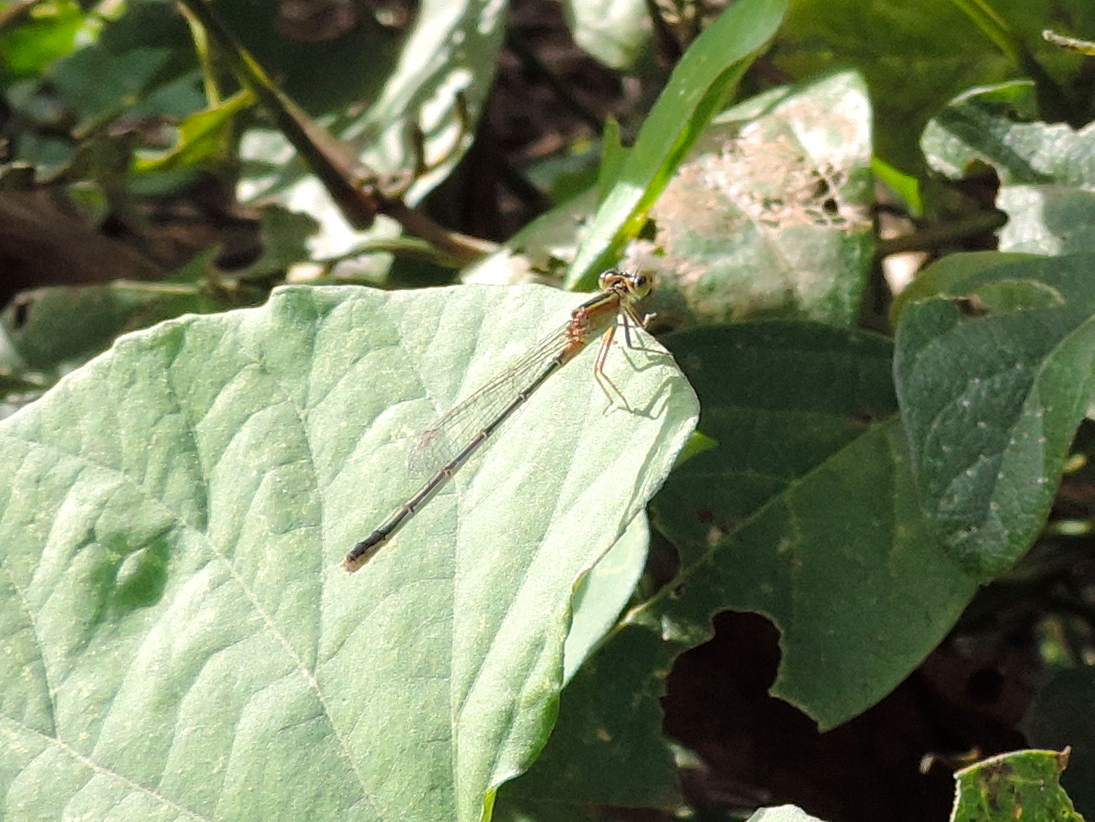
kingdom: Animalia
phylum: Arthropoda
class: Insecta
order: Odonata
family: Coenagrionidae
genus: Ischnura
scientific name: Ischnura ramburii
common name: Rambur's forktail
